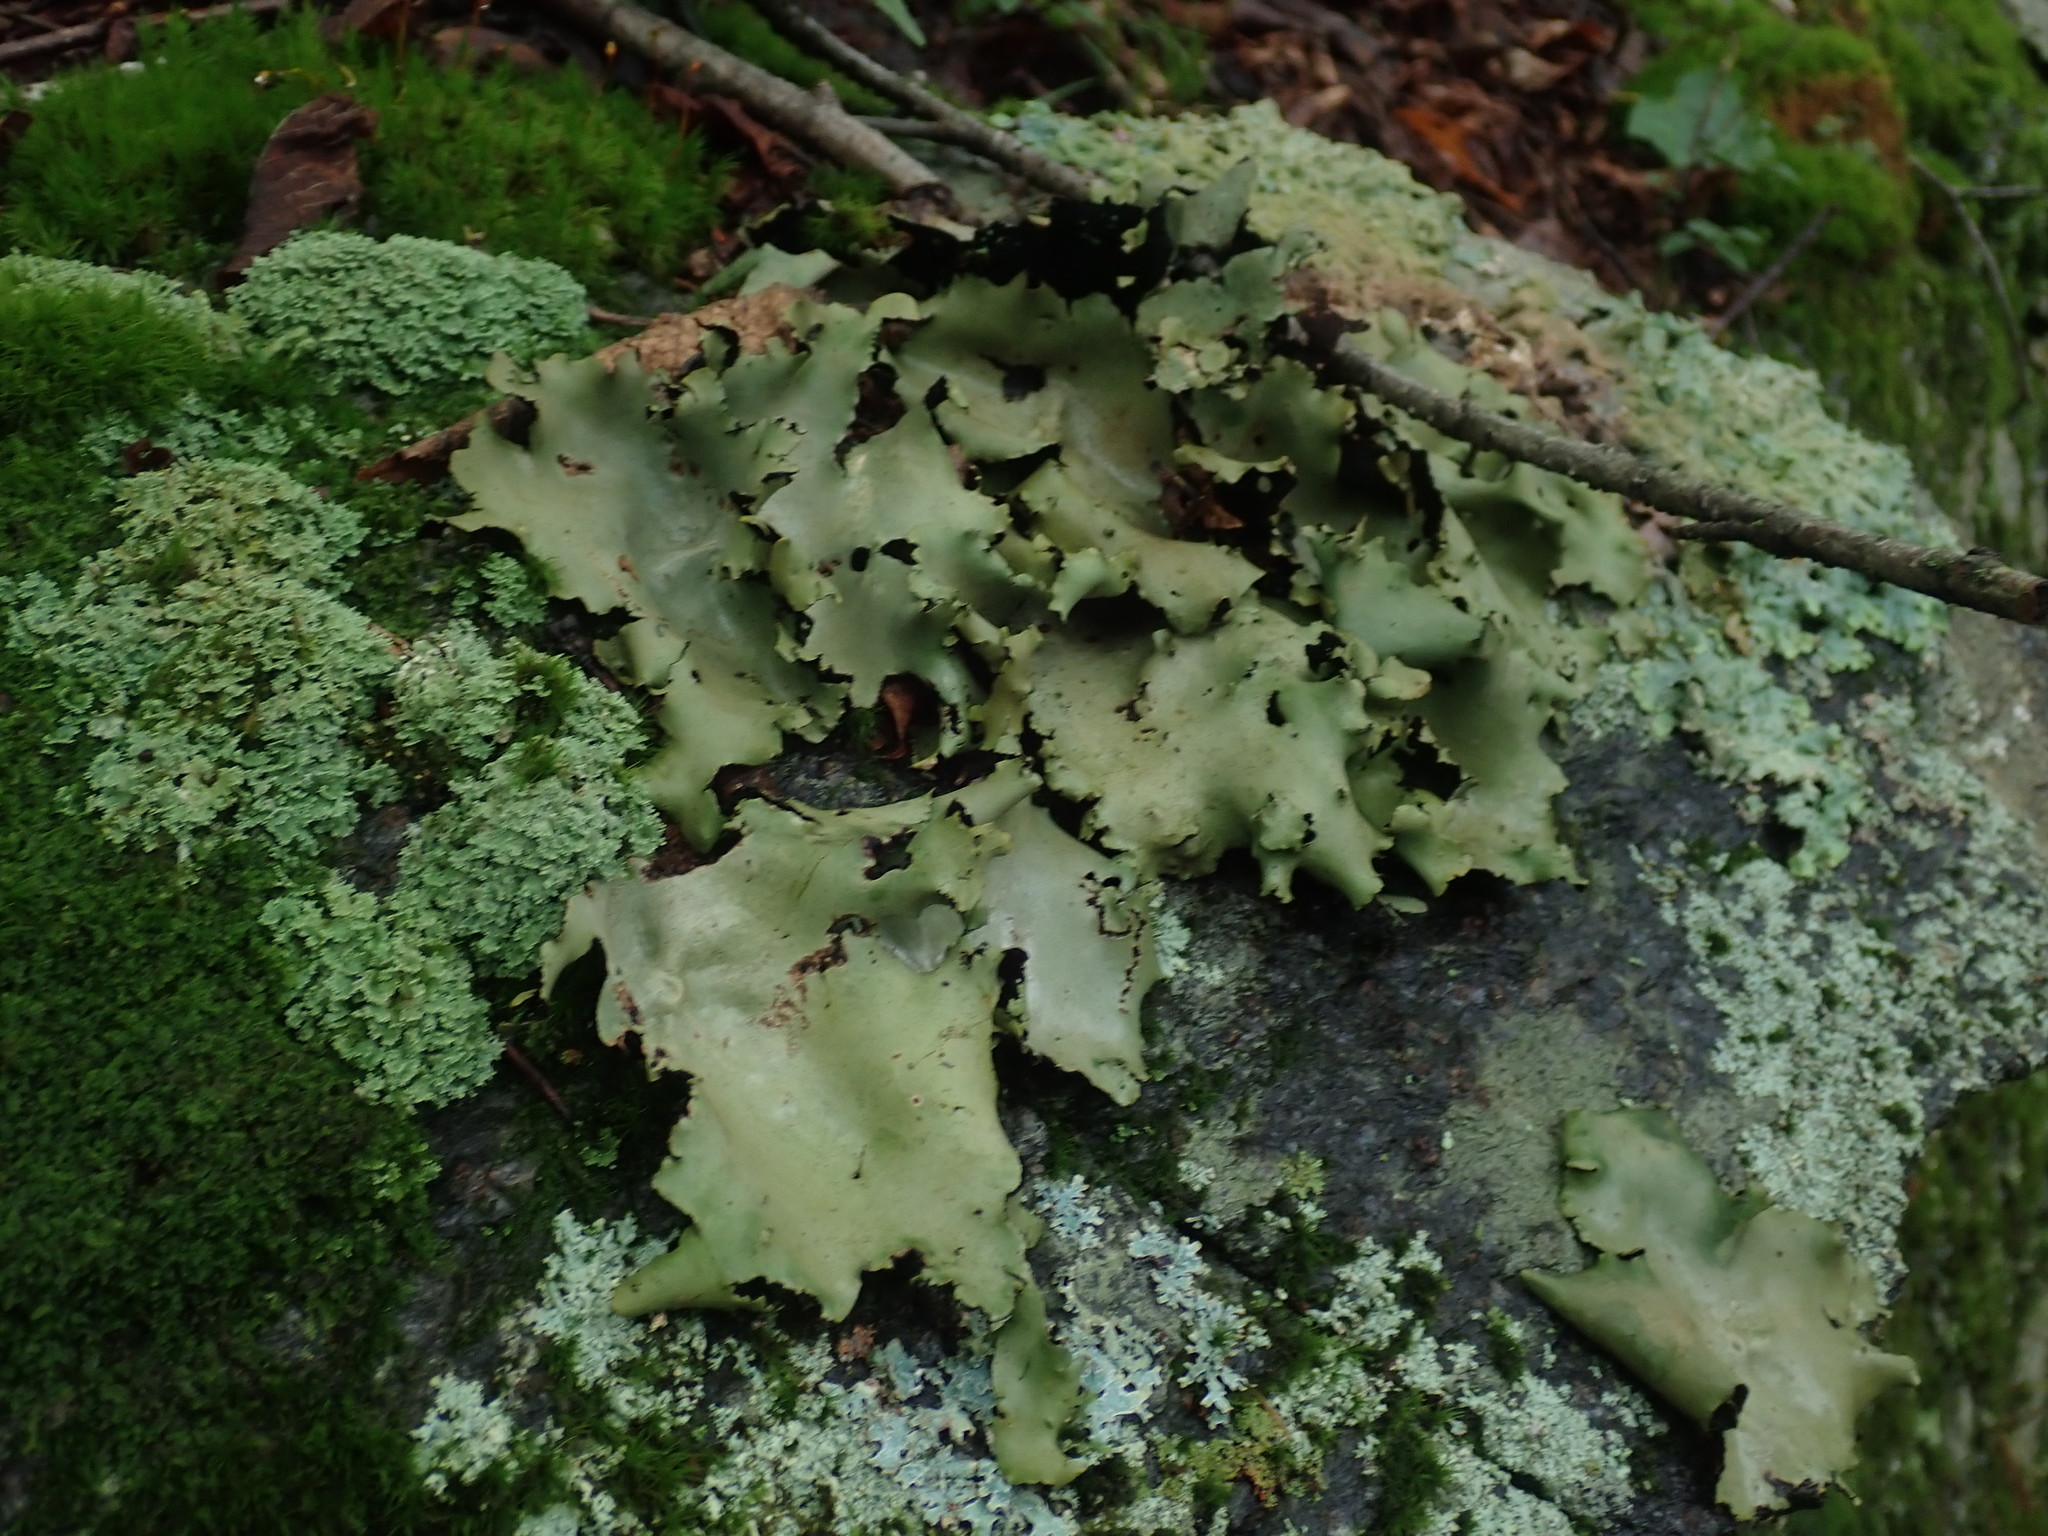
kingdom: Fungi
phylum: Ascomycota
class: Lecanoromycetes
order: Umbilicariales
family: Umbilicariaceae
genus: Umbilicaria
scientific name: Umbilicaria mammulata
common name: Smooth rock tripe
